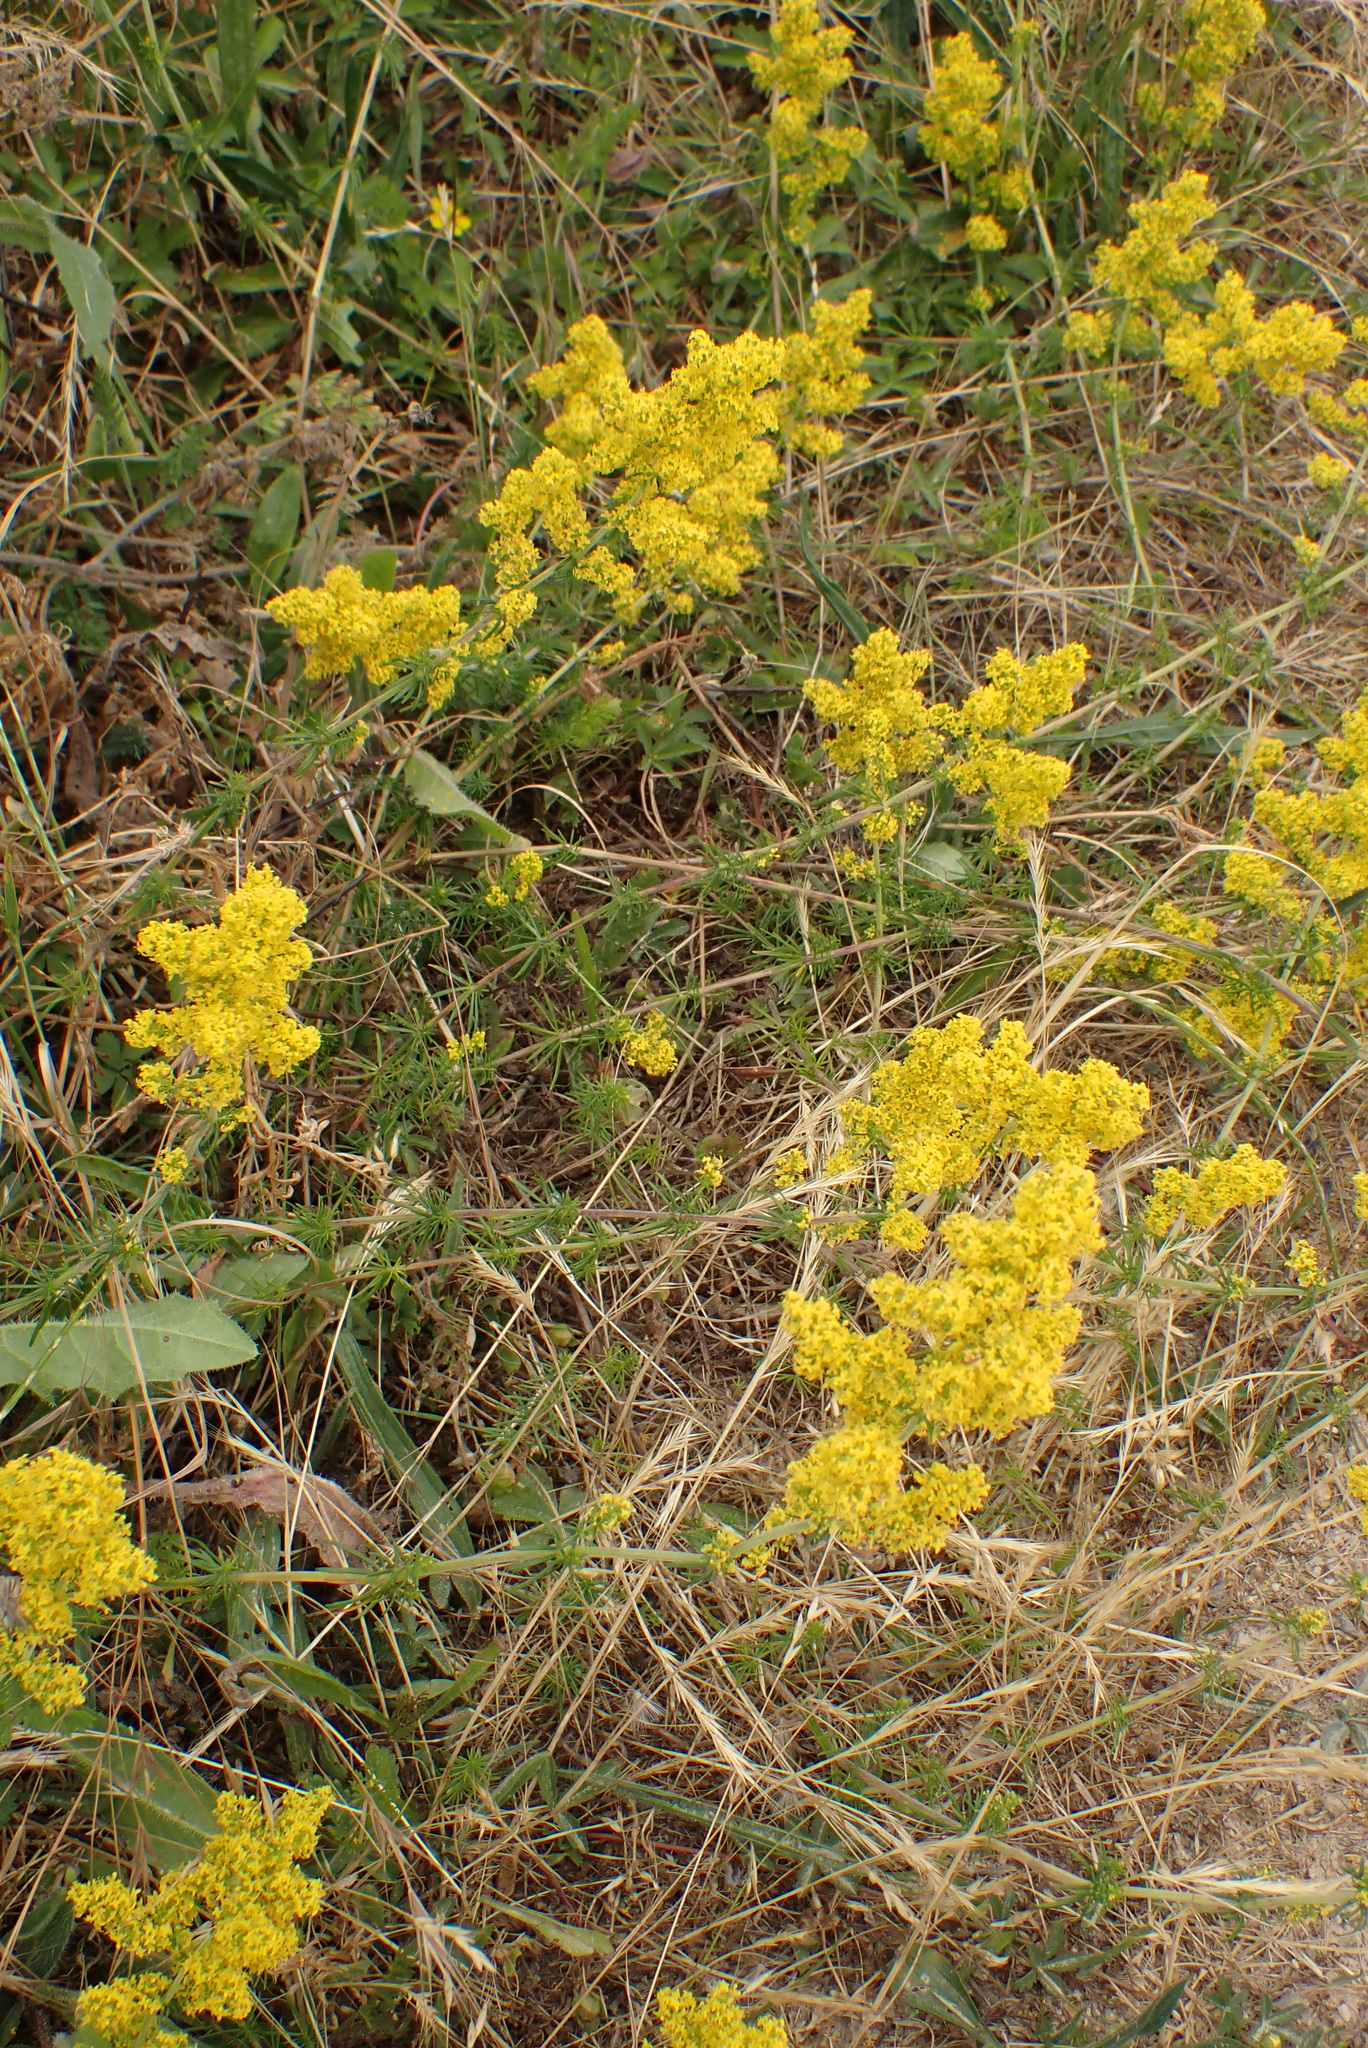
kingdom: Plantae
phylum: Tracheophyta
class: Magnoliopsida
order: Gentianales
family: Rubiaceae
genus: Galium
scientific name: Galium verum
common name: Lady's bedstraw
